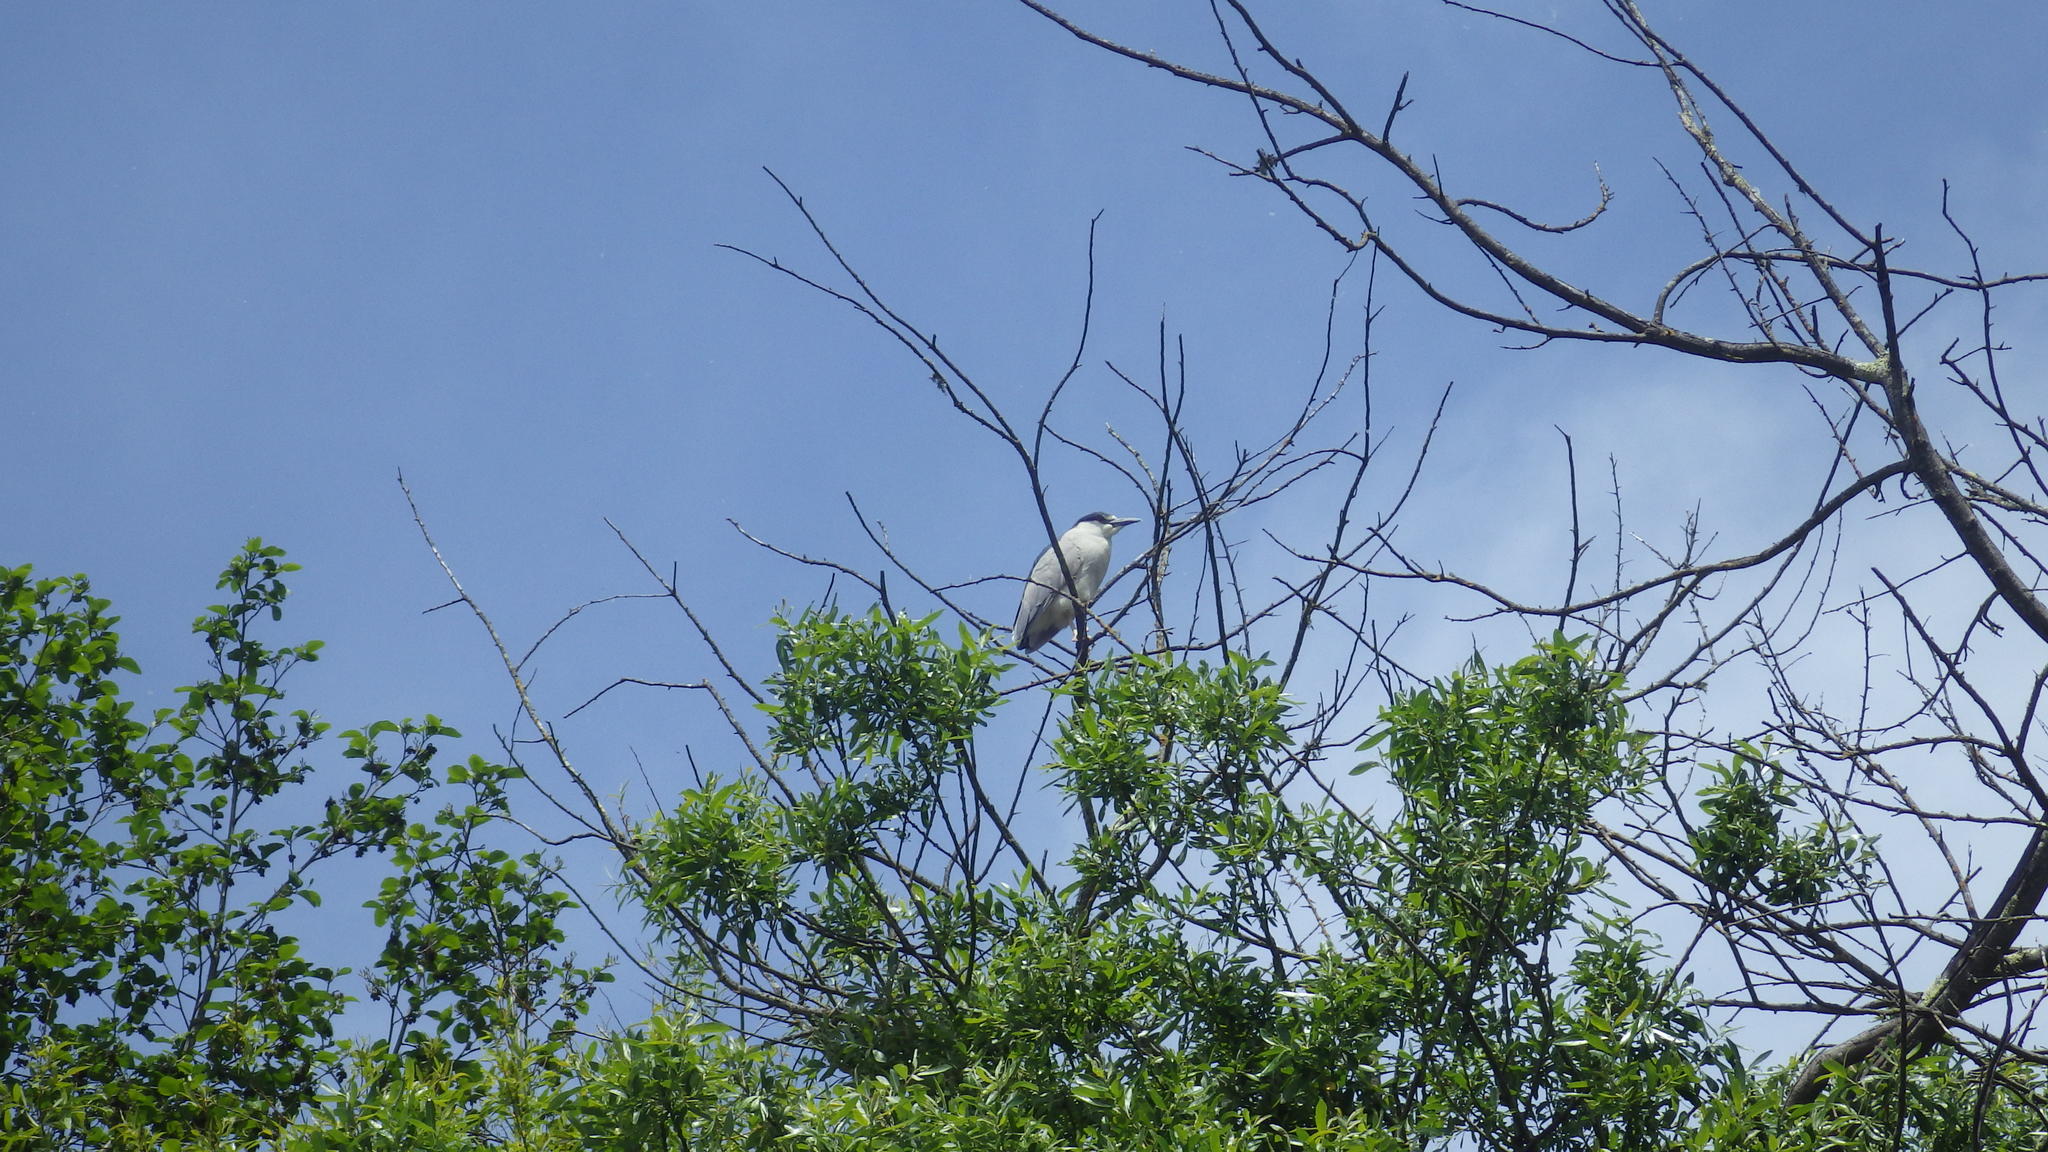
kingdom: Animalia
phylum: Chordata
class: Aves
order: Pelecaniformes
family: Ardeidae
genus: Nycticorax
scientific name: Nycticorax nycticorax
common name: Black-crowned night heron
